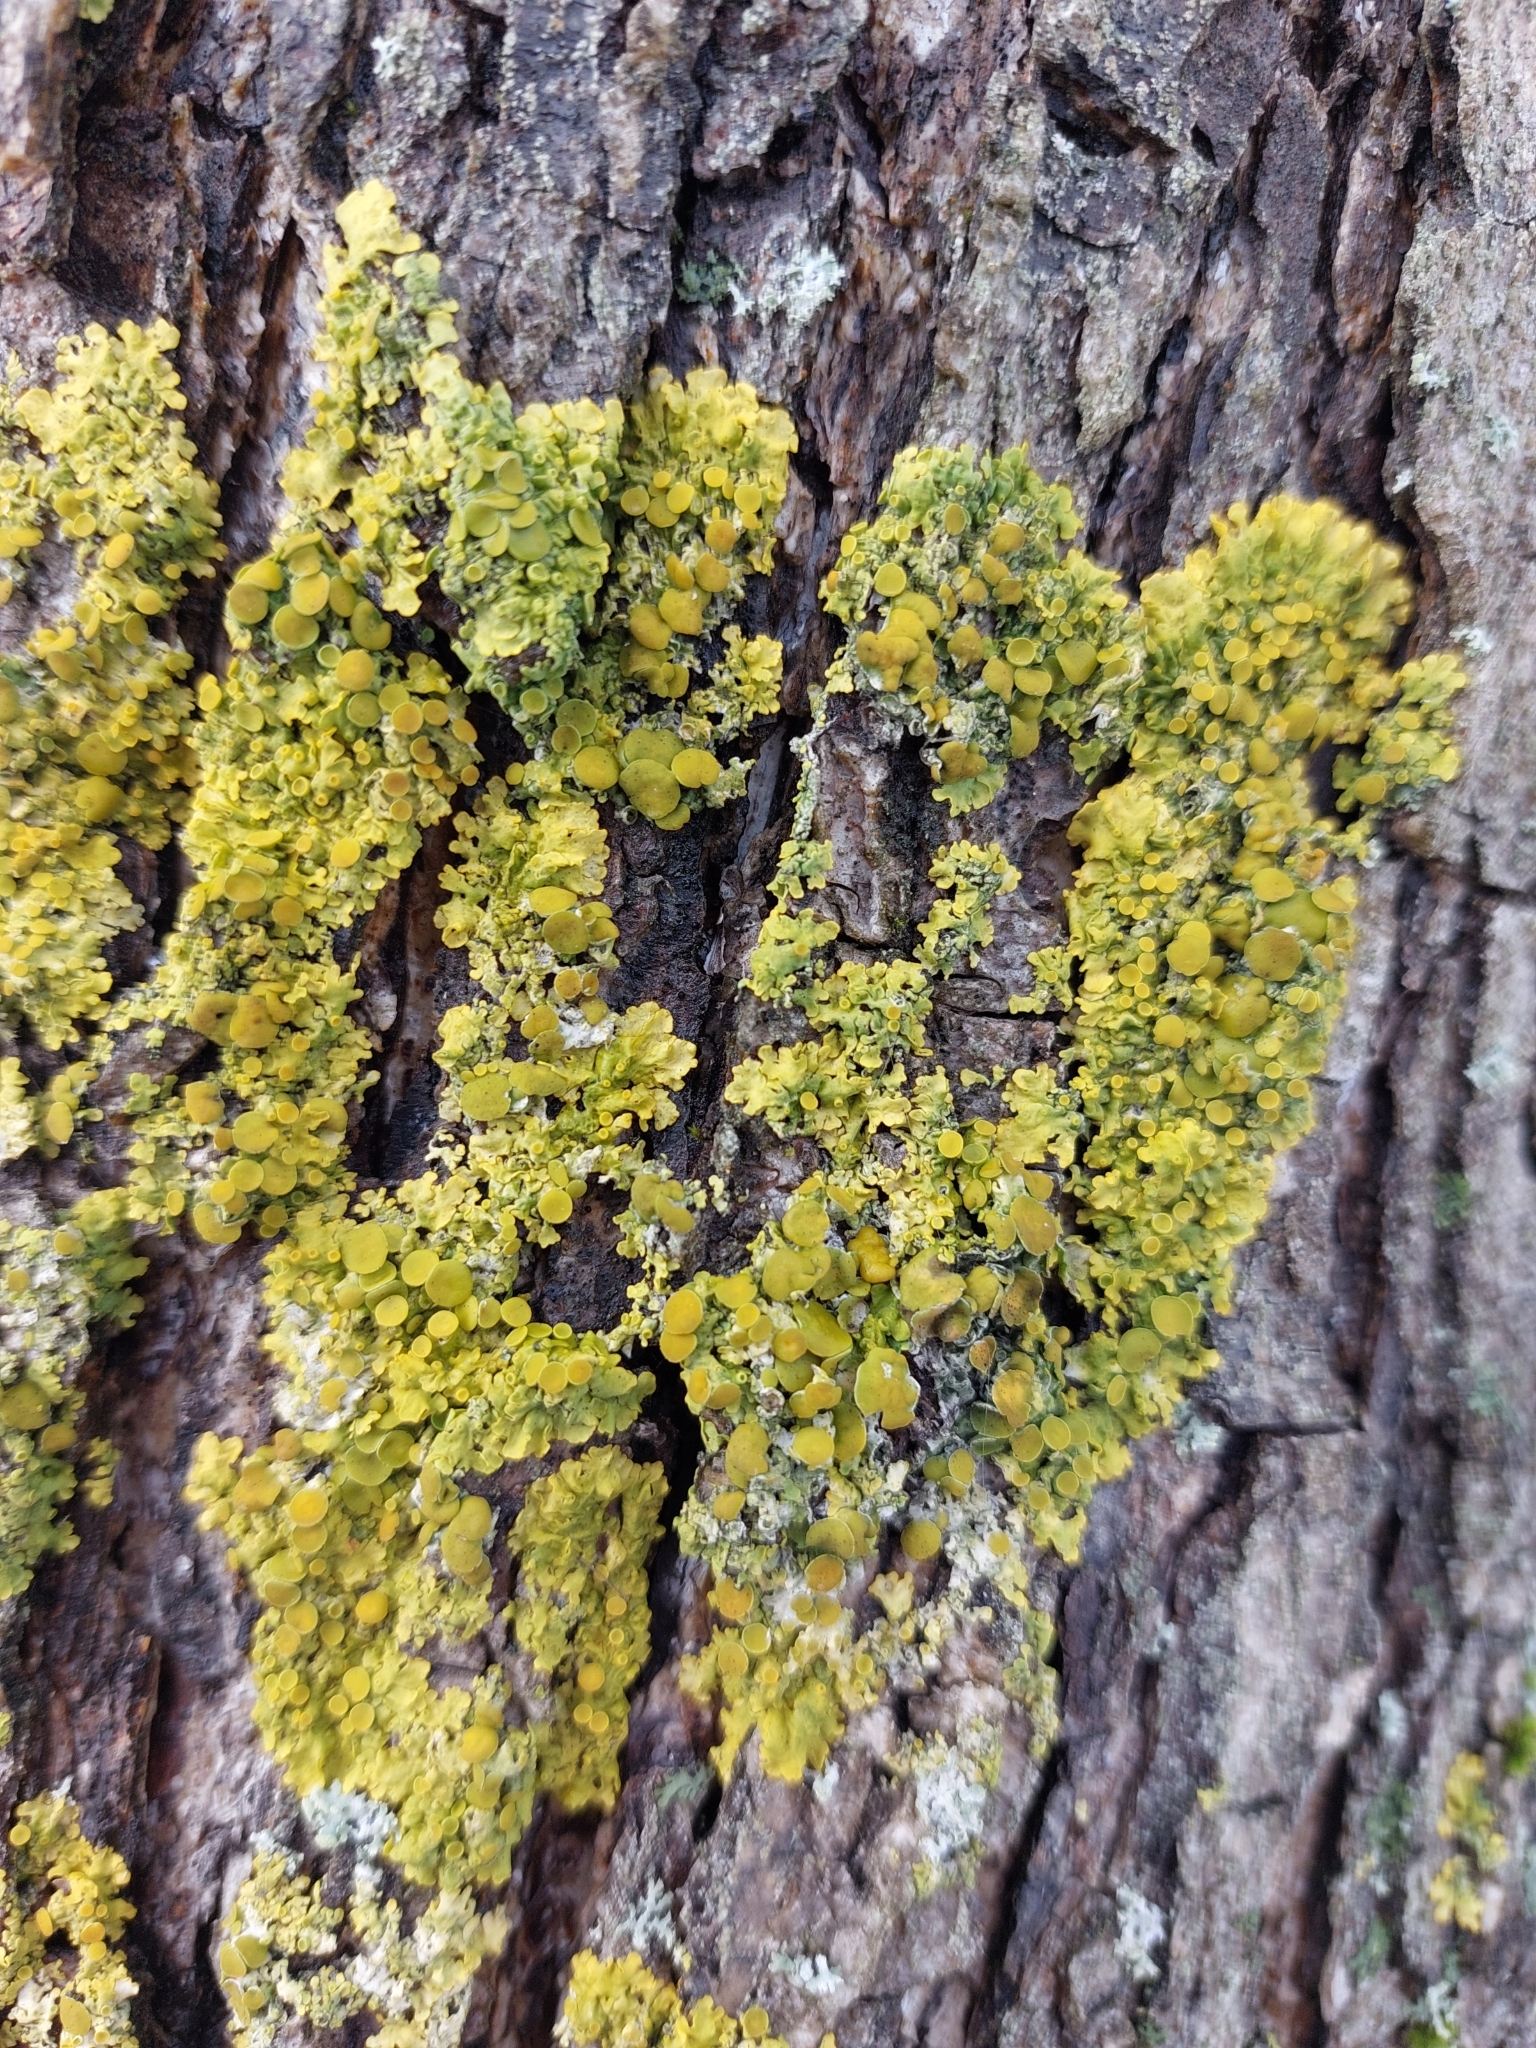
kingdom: Fungi
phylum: Ascomycota
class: Lecanoromycetes
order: Teloschistales
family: Teloschistaceae
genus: Xanthoria
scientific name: Xanthoria parietina
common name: Common orange lichen
